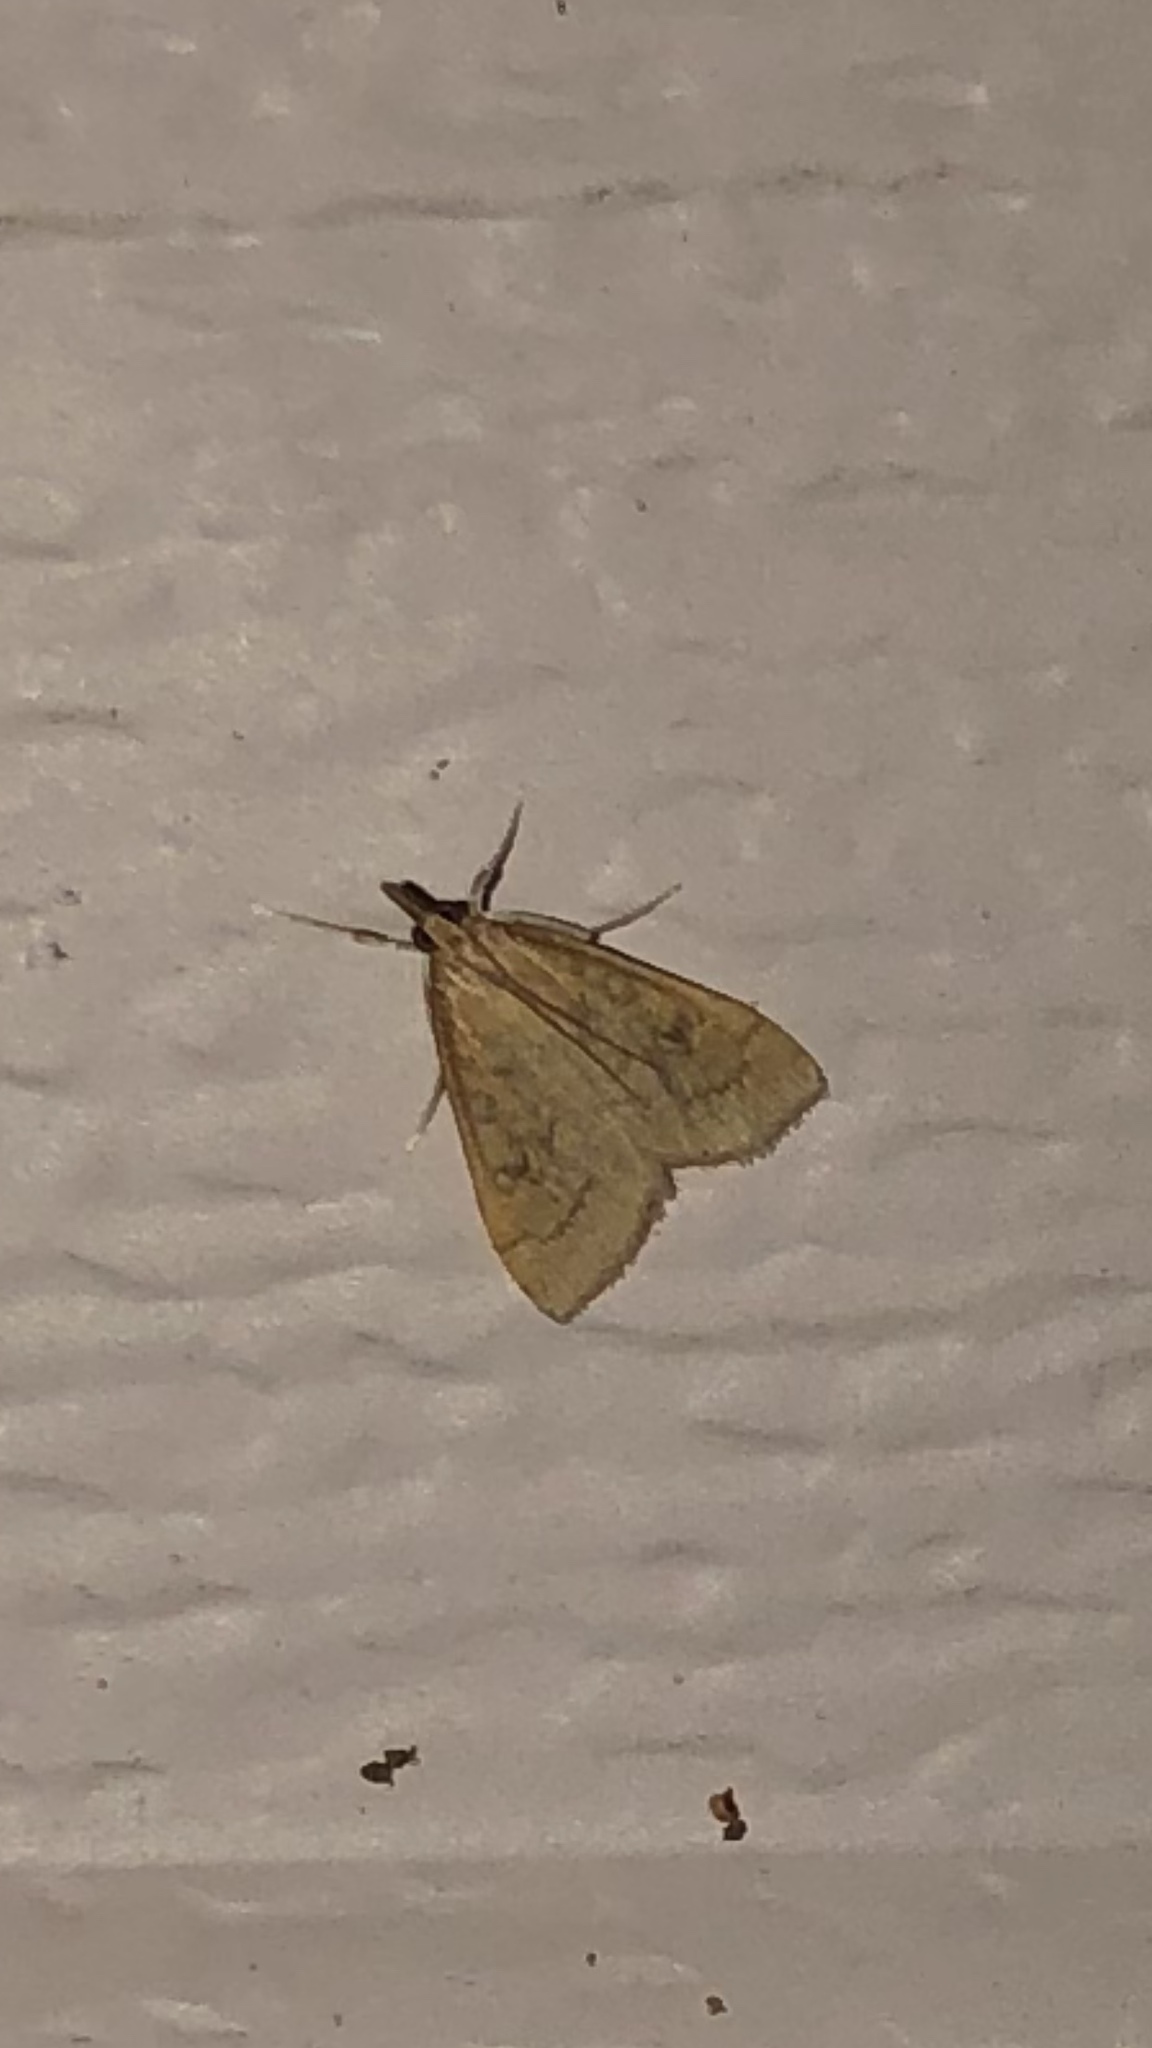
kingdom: Animalia
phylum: Arthropoda
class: Insecta
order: Lepidoptera
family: Crambidae
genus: Udea
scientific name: Udea rubigalis
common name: Celery leaftier moth
